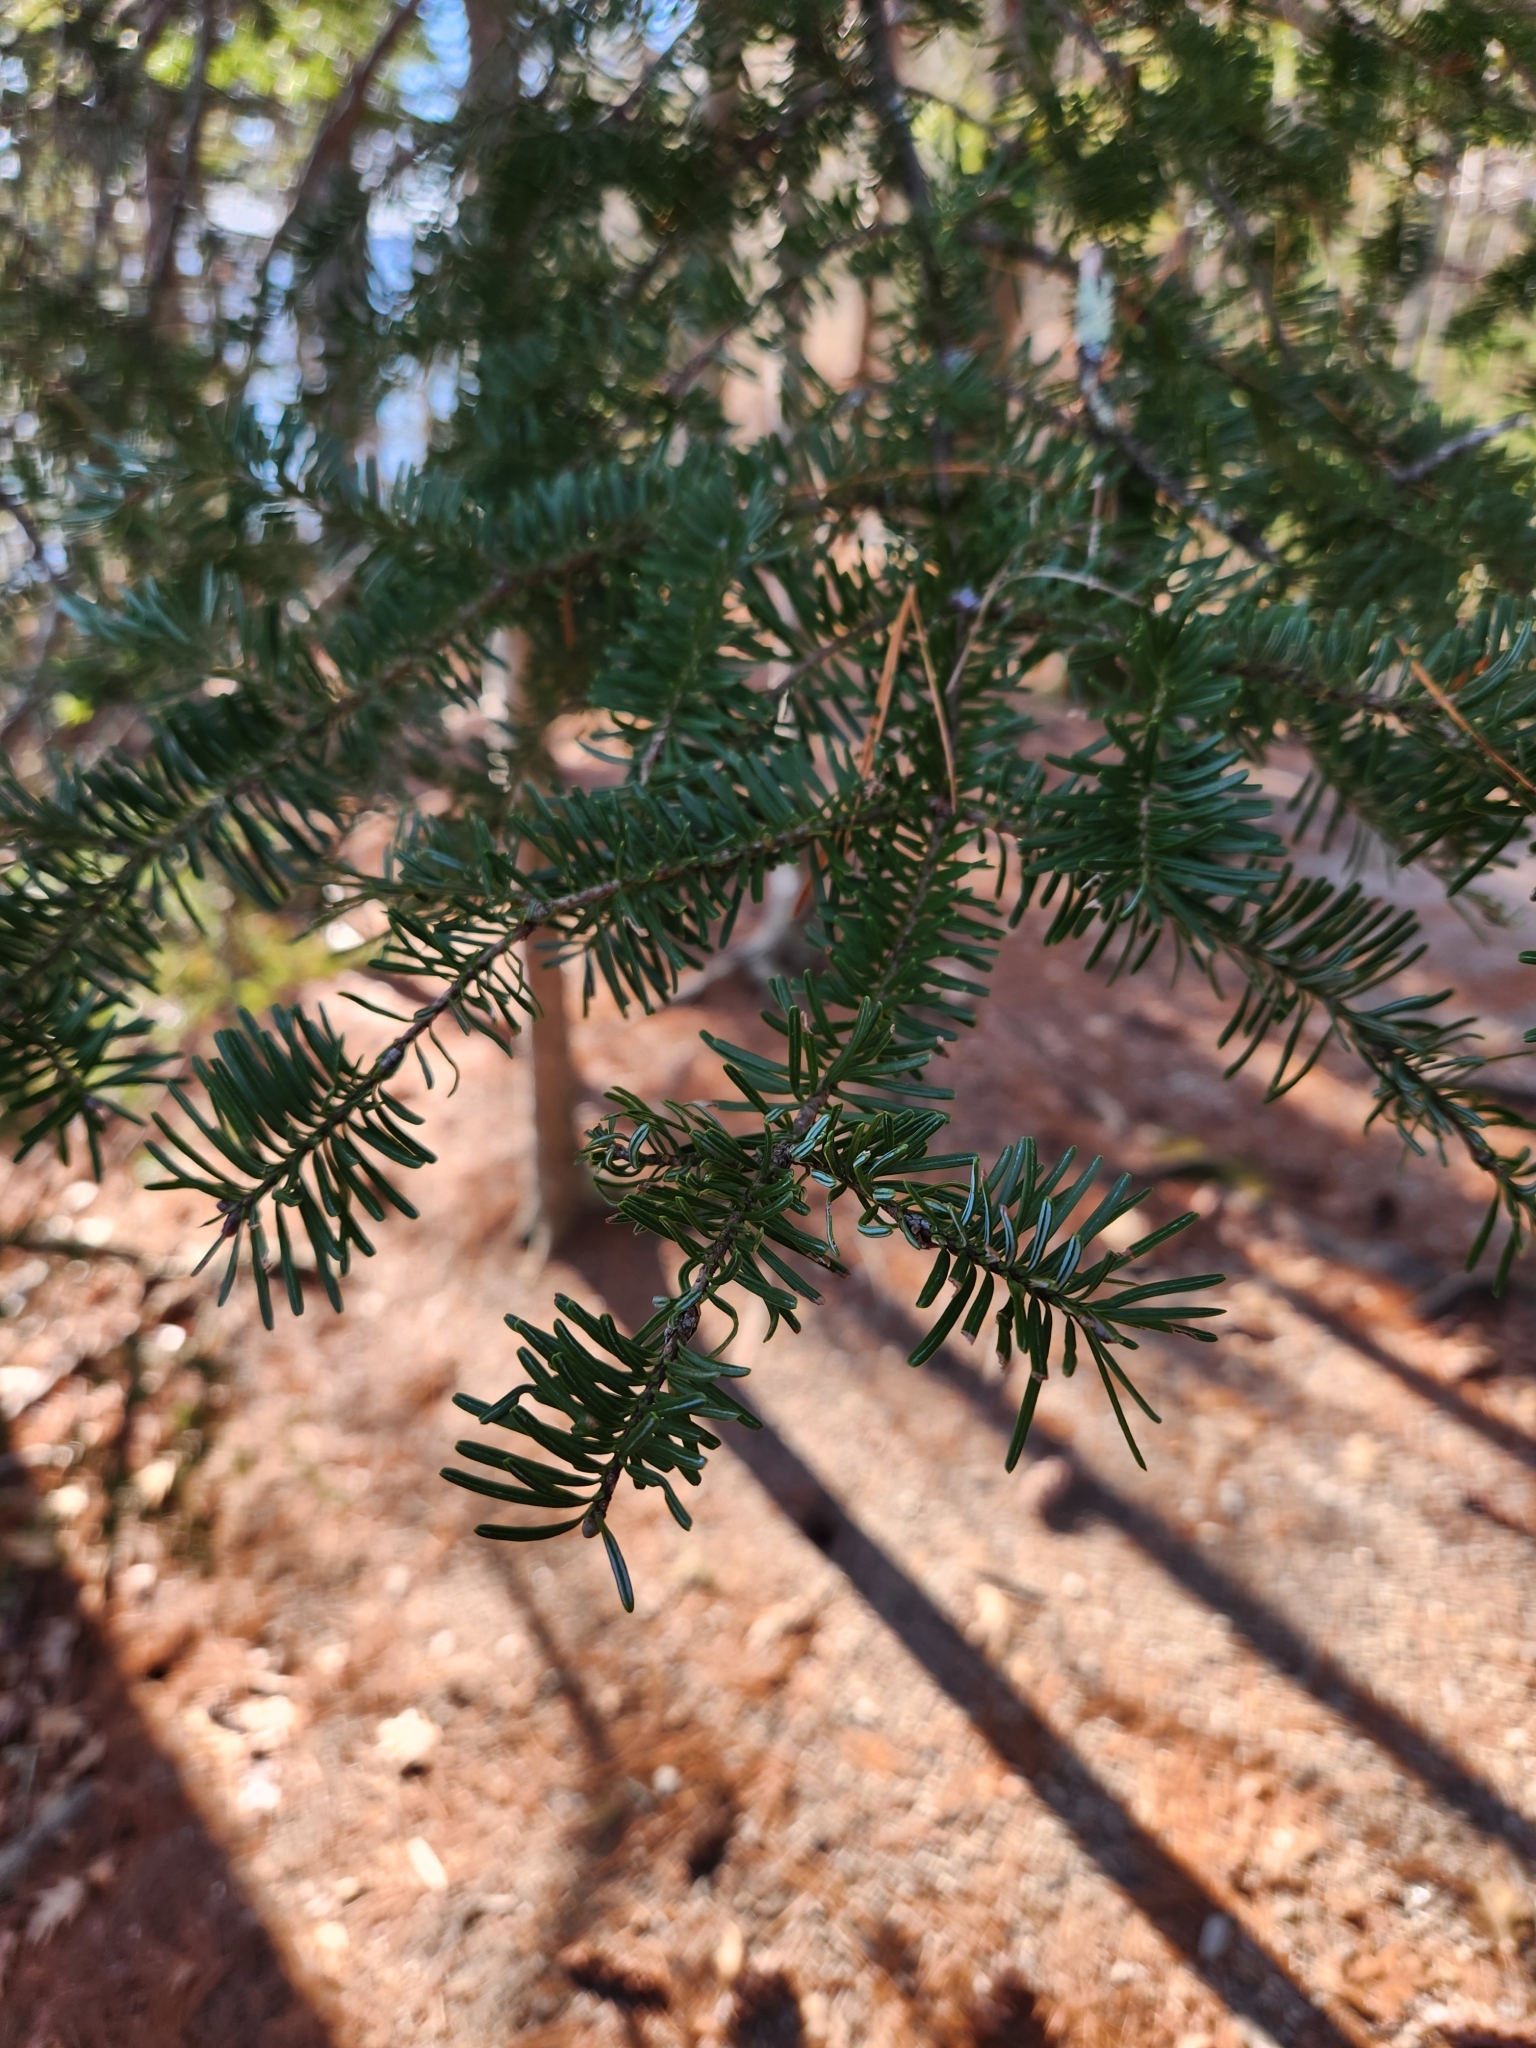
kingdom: Plantae
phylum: Tracheophyta
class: Pinopsida
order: Pinales
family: Pinaceae
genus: Abies
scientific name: Abies balsamea
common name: Balsam fir
